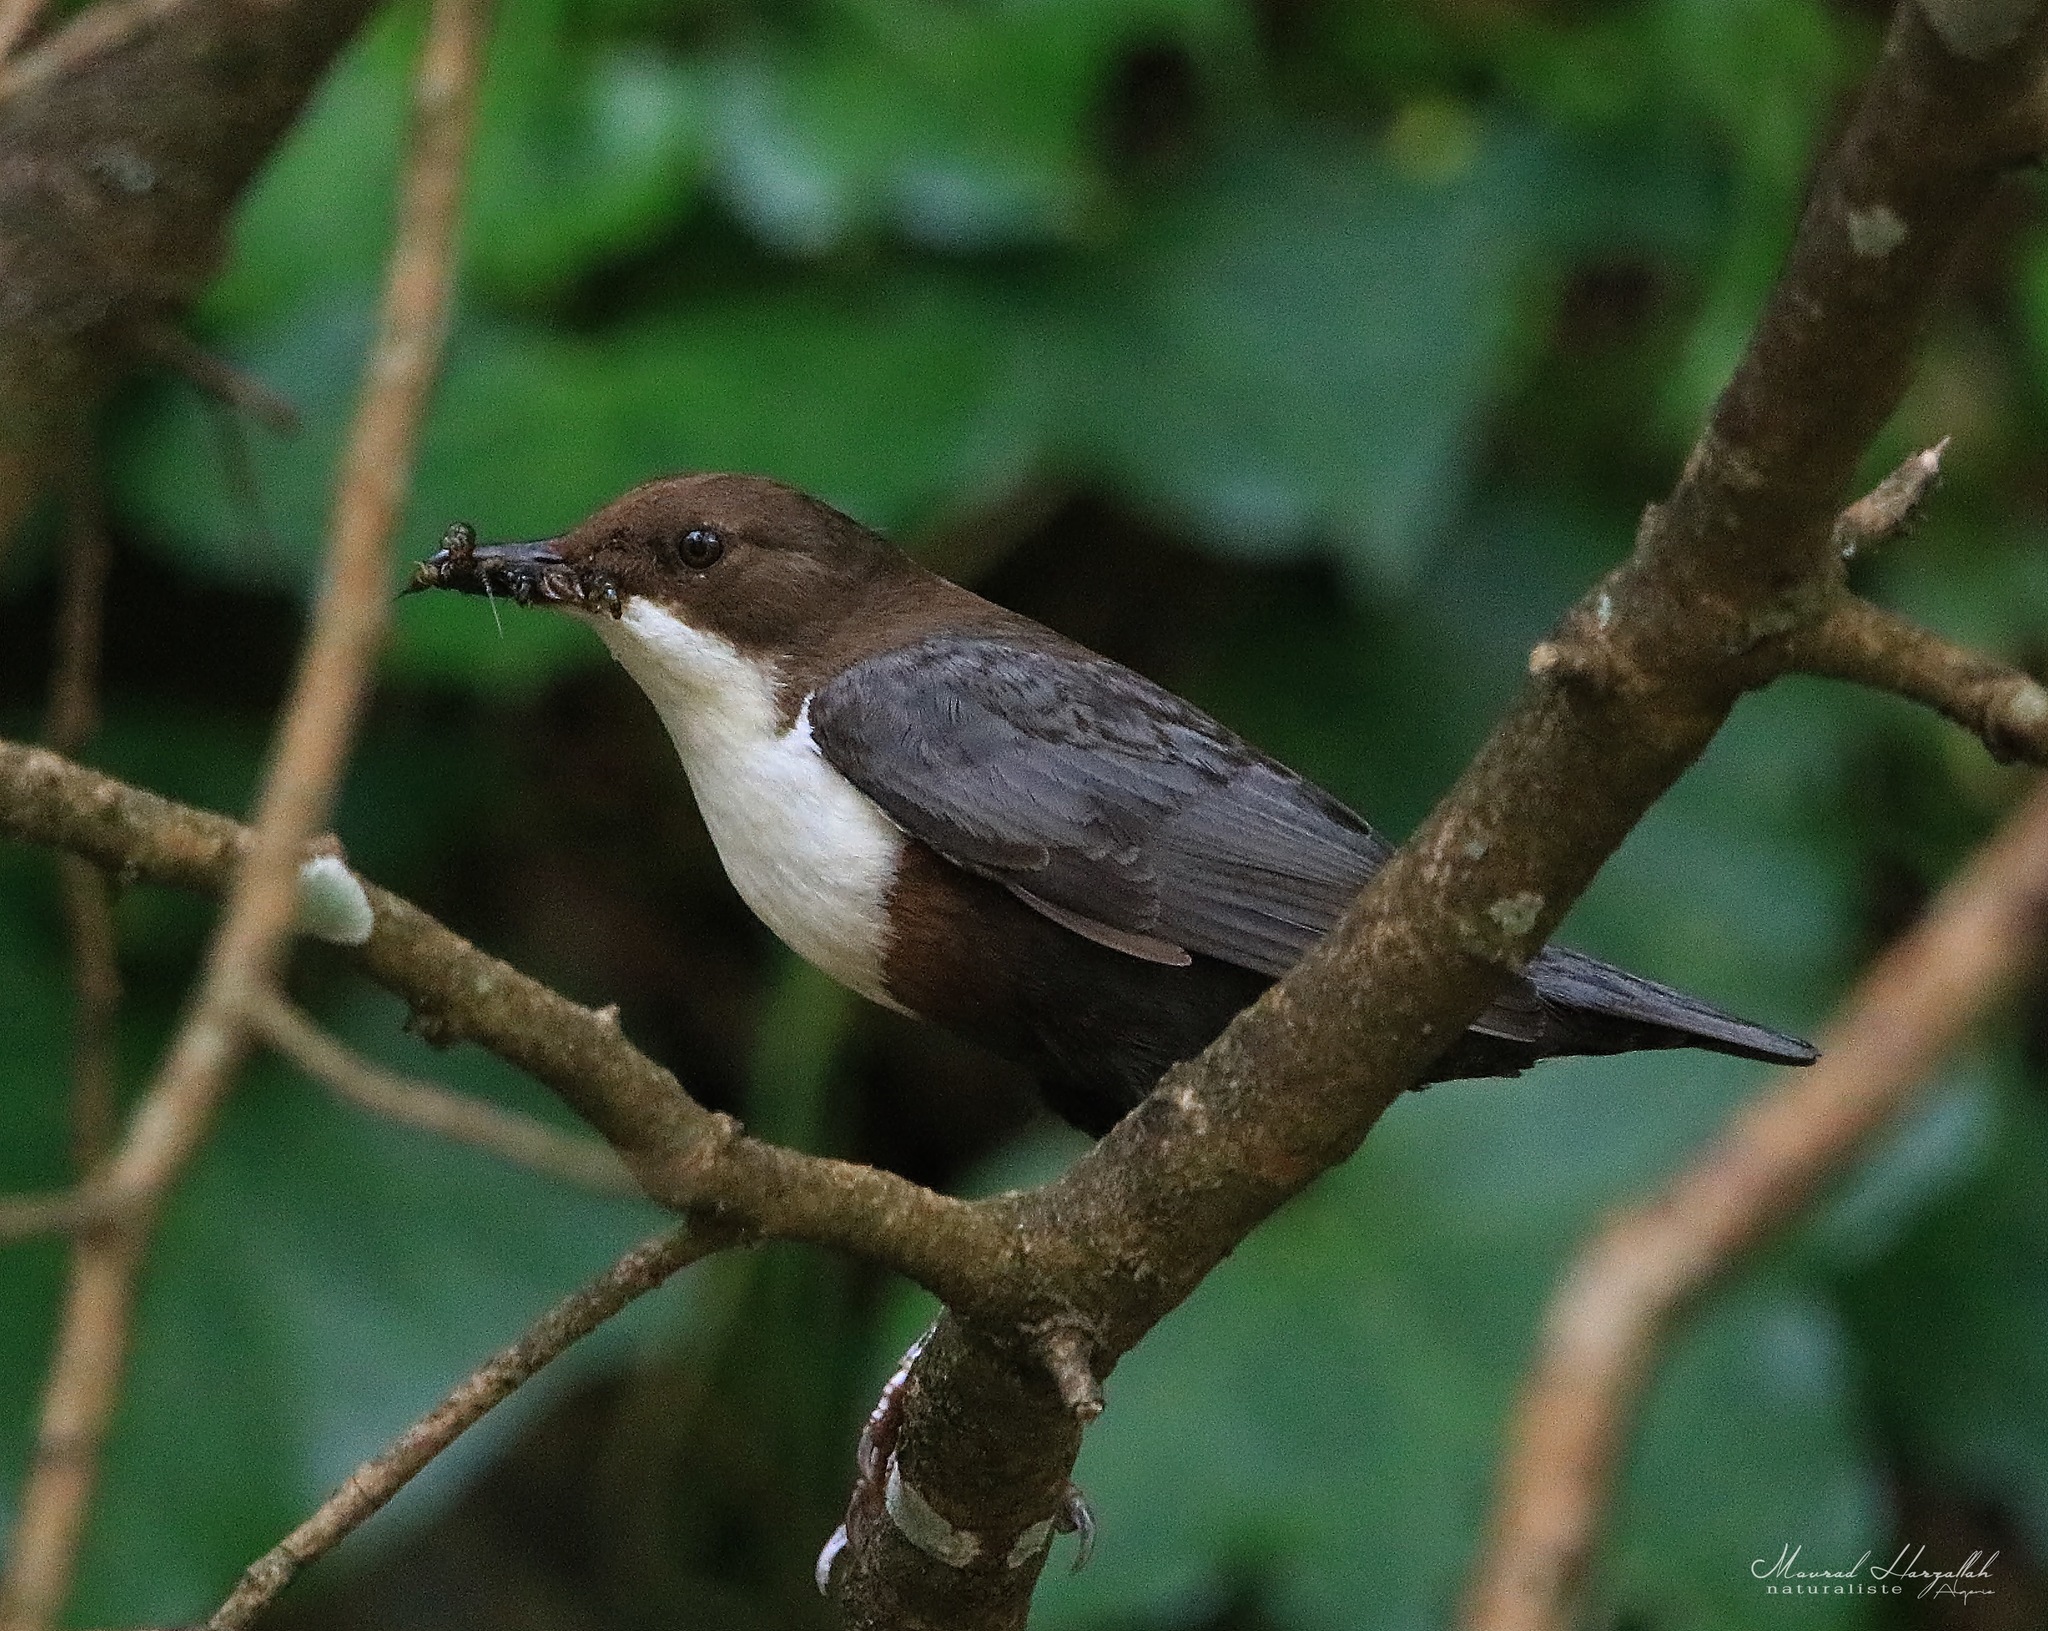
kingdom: Animalia
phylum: Chordata
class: Aves
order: Passeriformes
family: Cinclidae
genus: Cinclus
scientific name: Cinclus cinclus
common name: White-throated dipper
